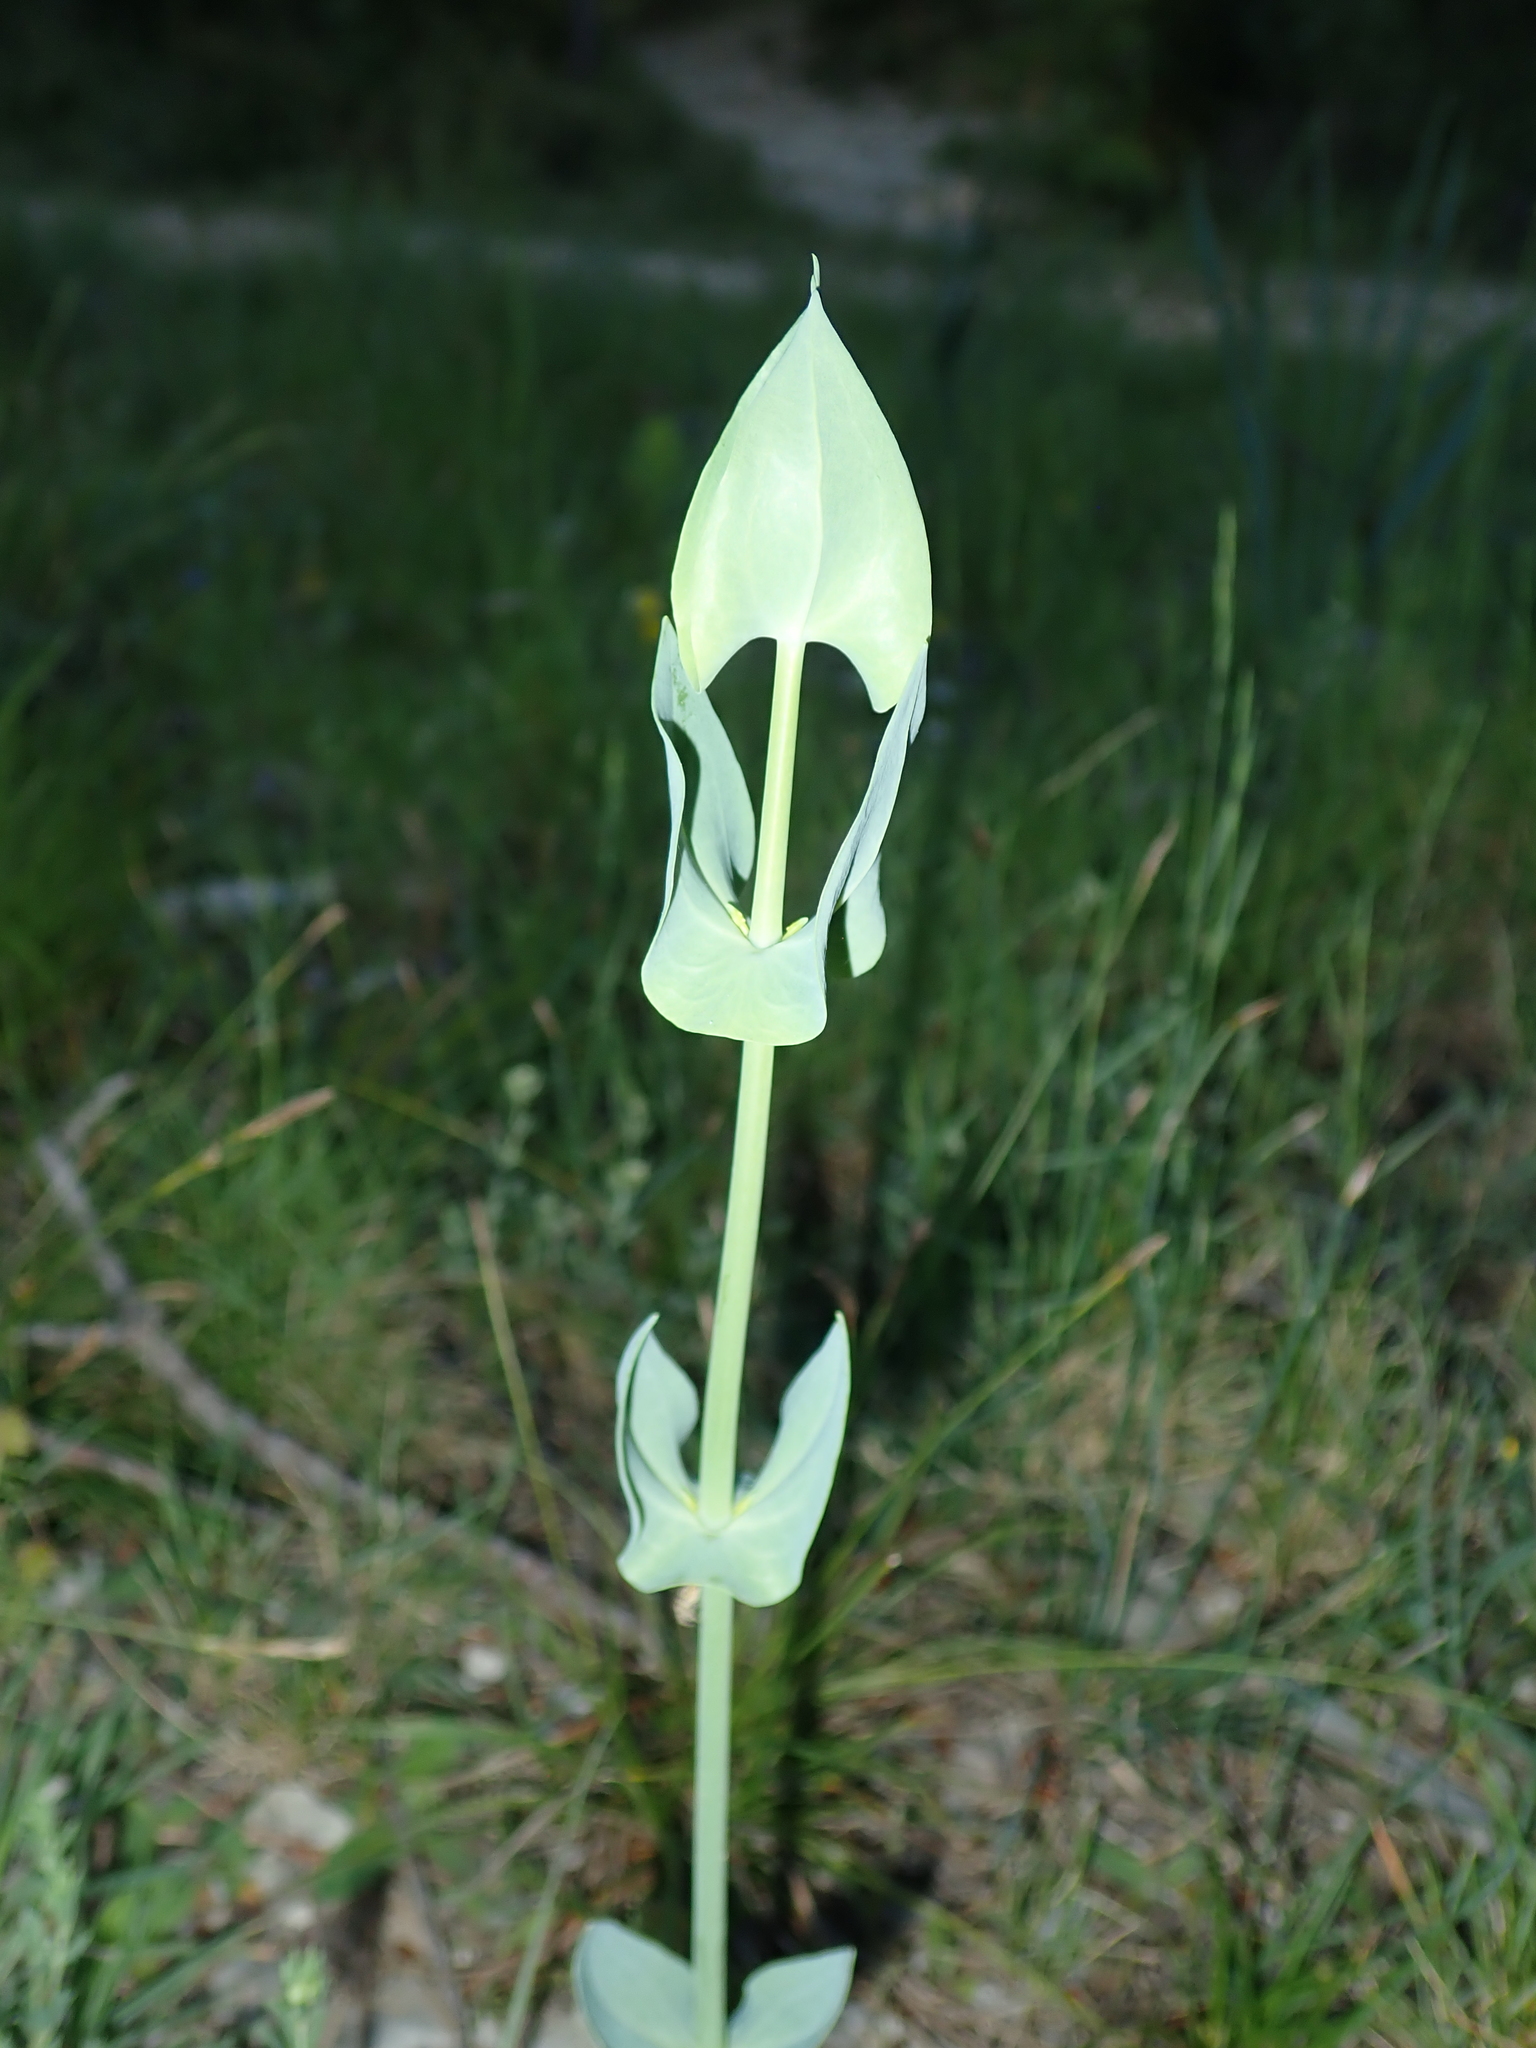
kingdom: Plantae
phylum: Tracheophyta
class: Magnoliopsida
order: Gentianales
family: Gentianaceae
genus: Blackstonia
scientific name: Blackstonia perfoliata
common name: Yellow-wort
